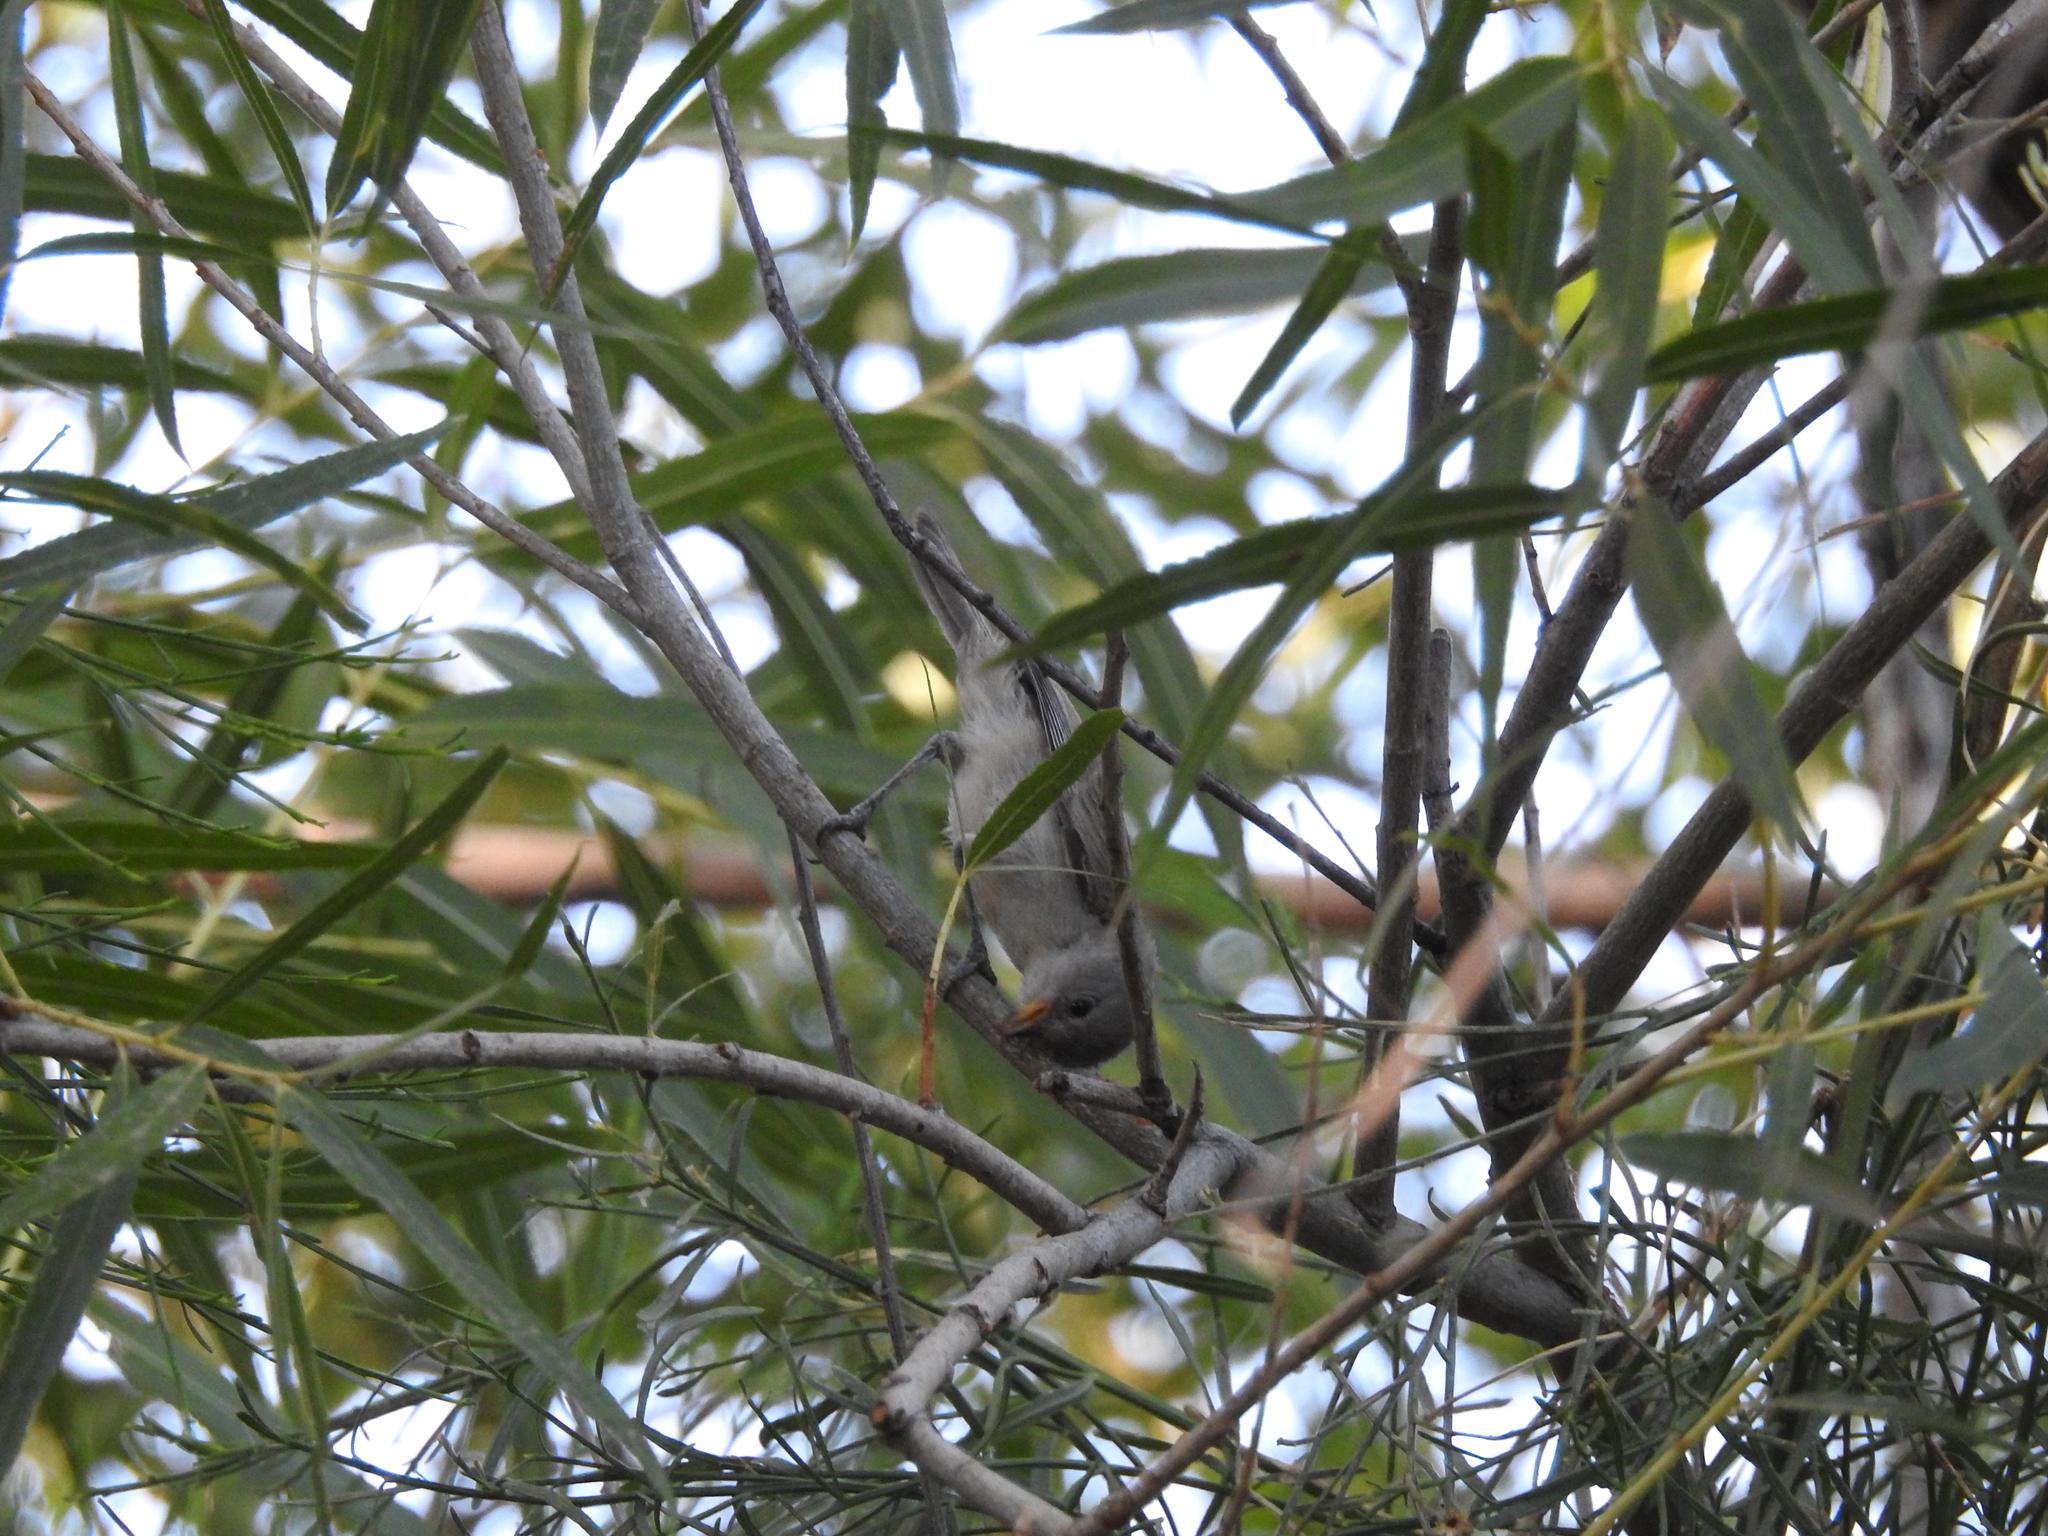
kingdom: Animalia
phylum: Chordata
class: Aves
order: Passeriformes
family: Remizidae
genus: Auriparus
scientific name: Auriparus flaviceps
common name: Verdin
